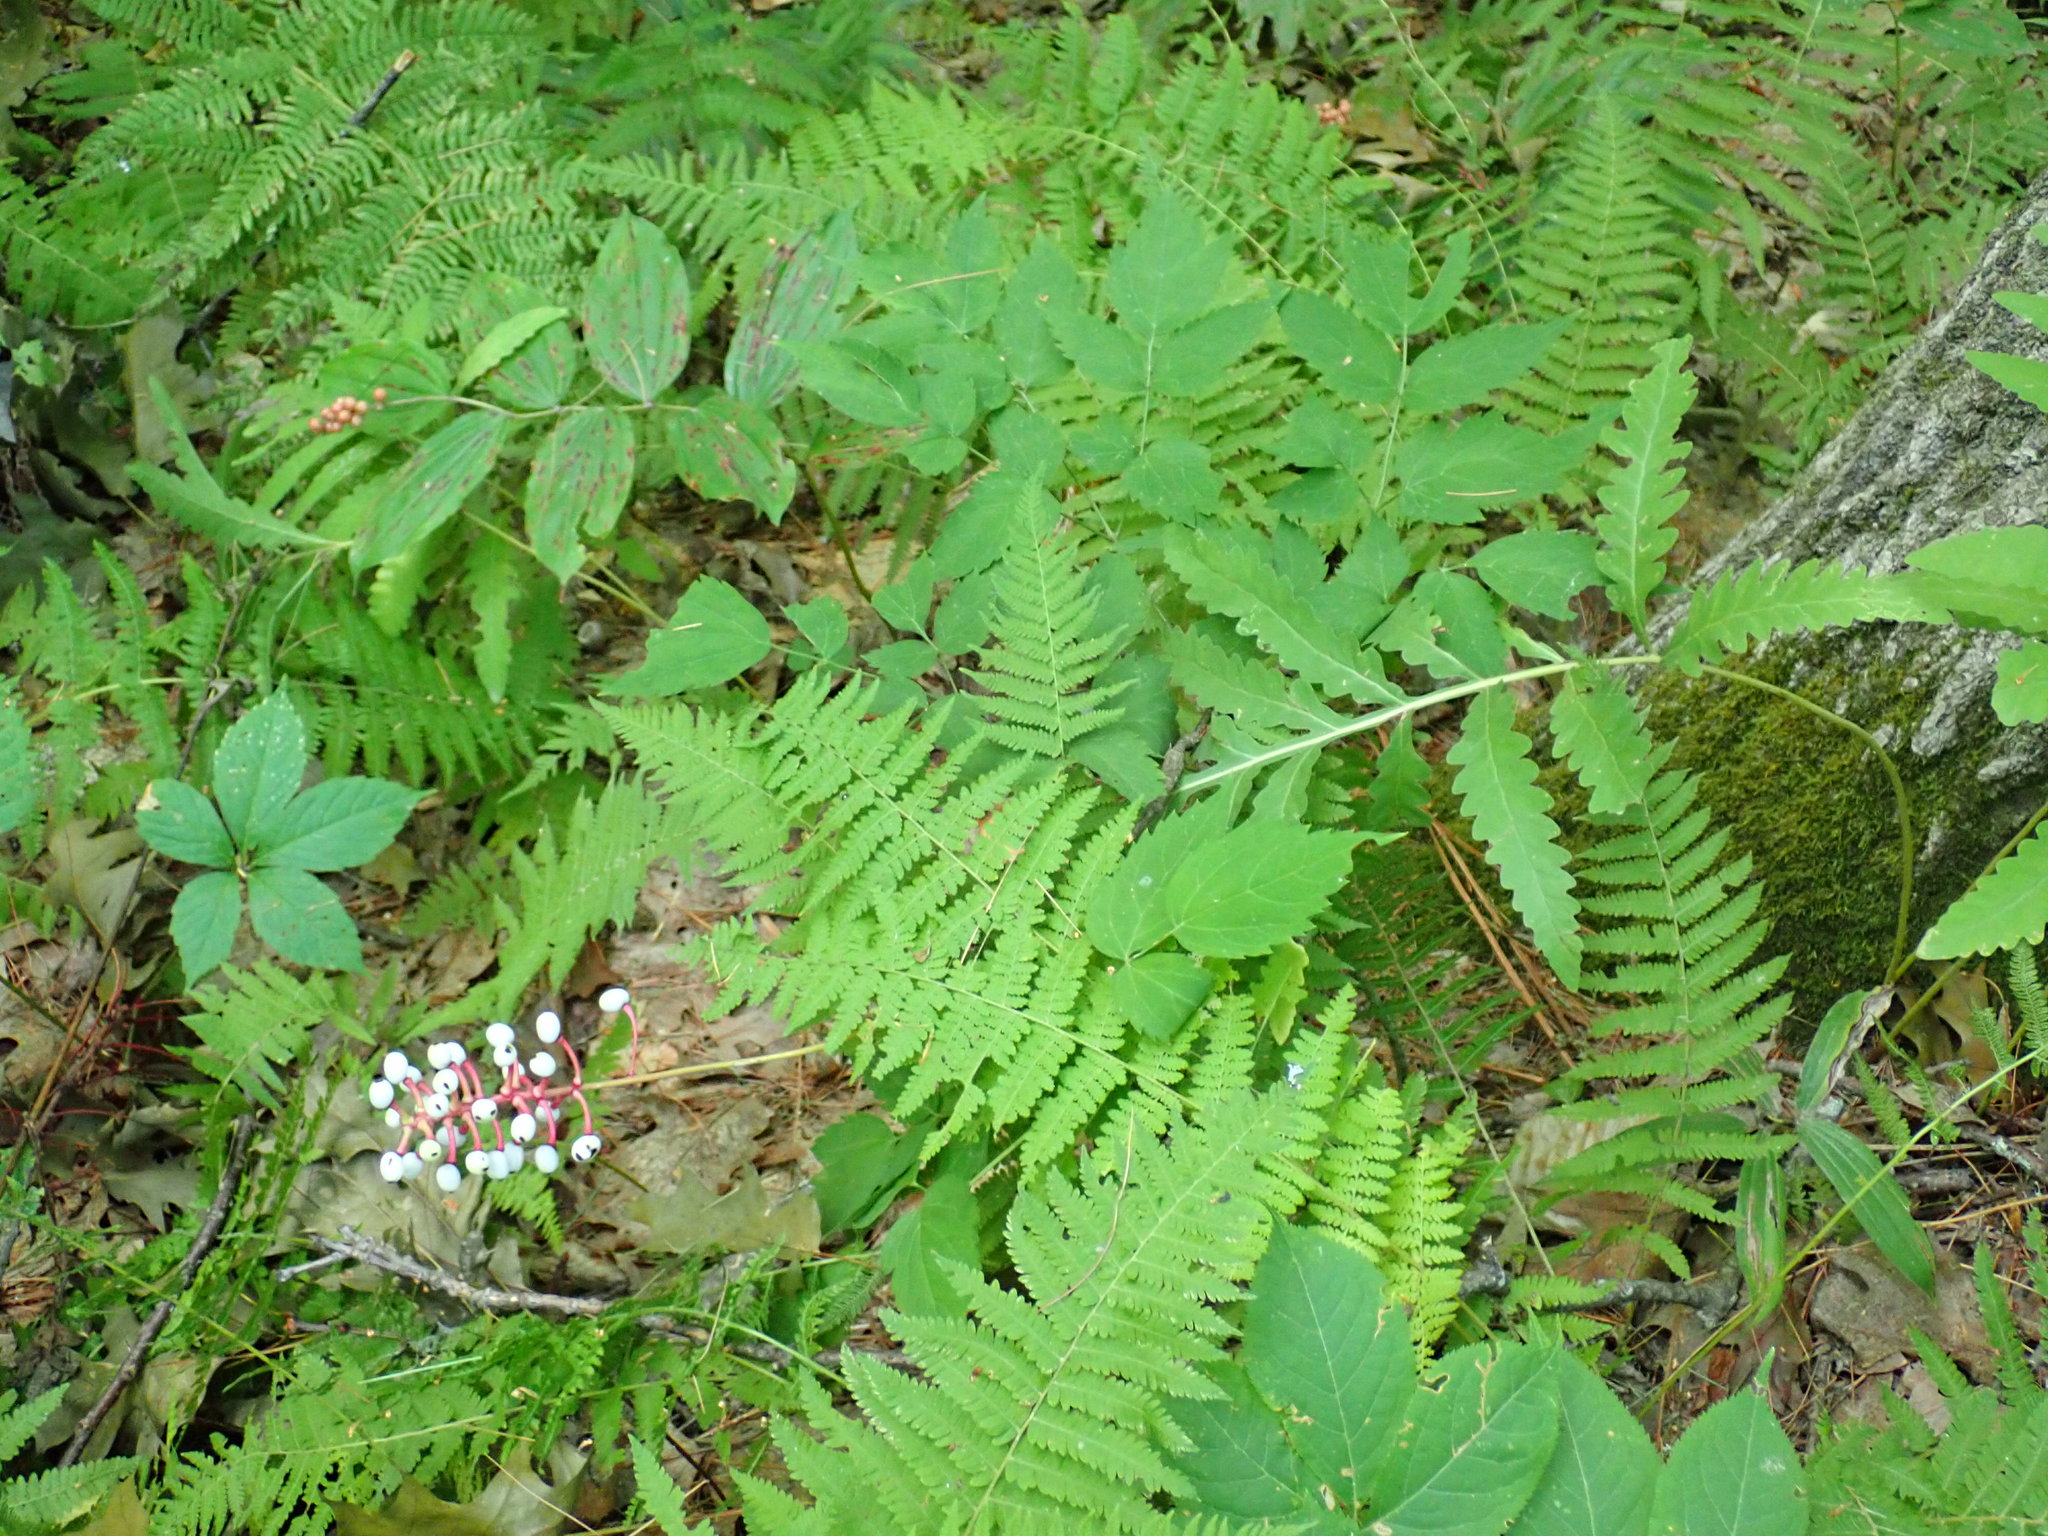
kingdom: Plantae
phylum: Tracheophyta
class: Magnoliopsida
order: Ranunculales
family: Ranunculaceae
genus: Actaea
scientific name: Actaea pachypoda
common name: Doll's-eyes
